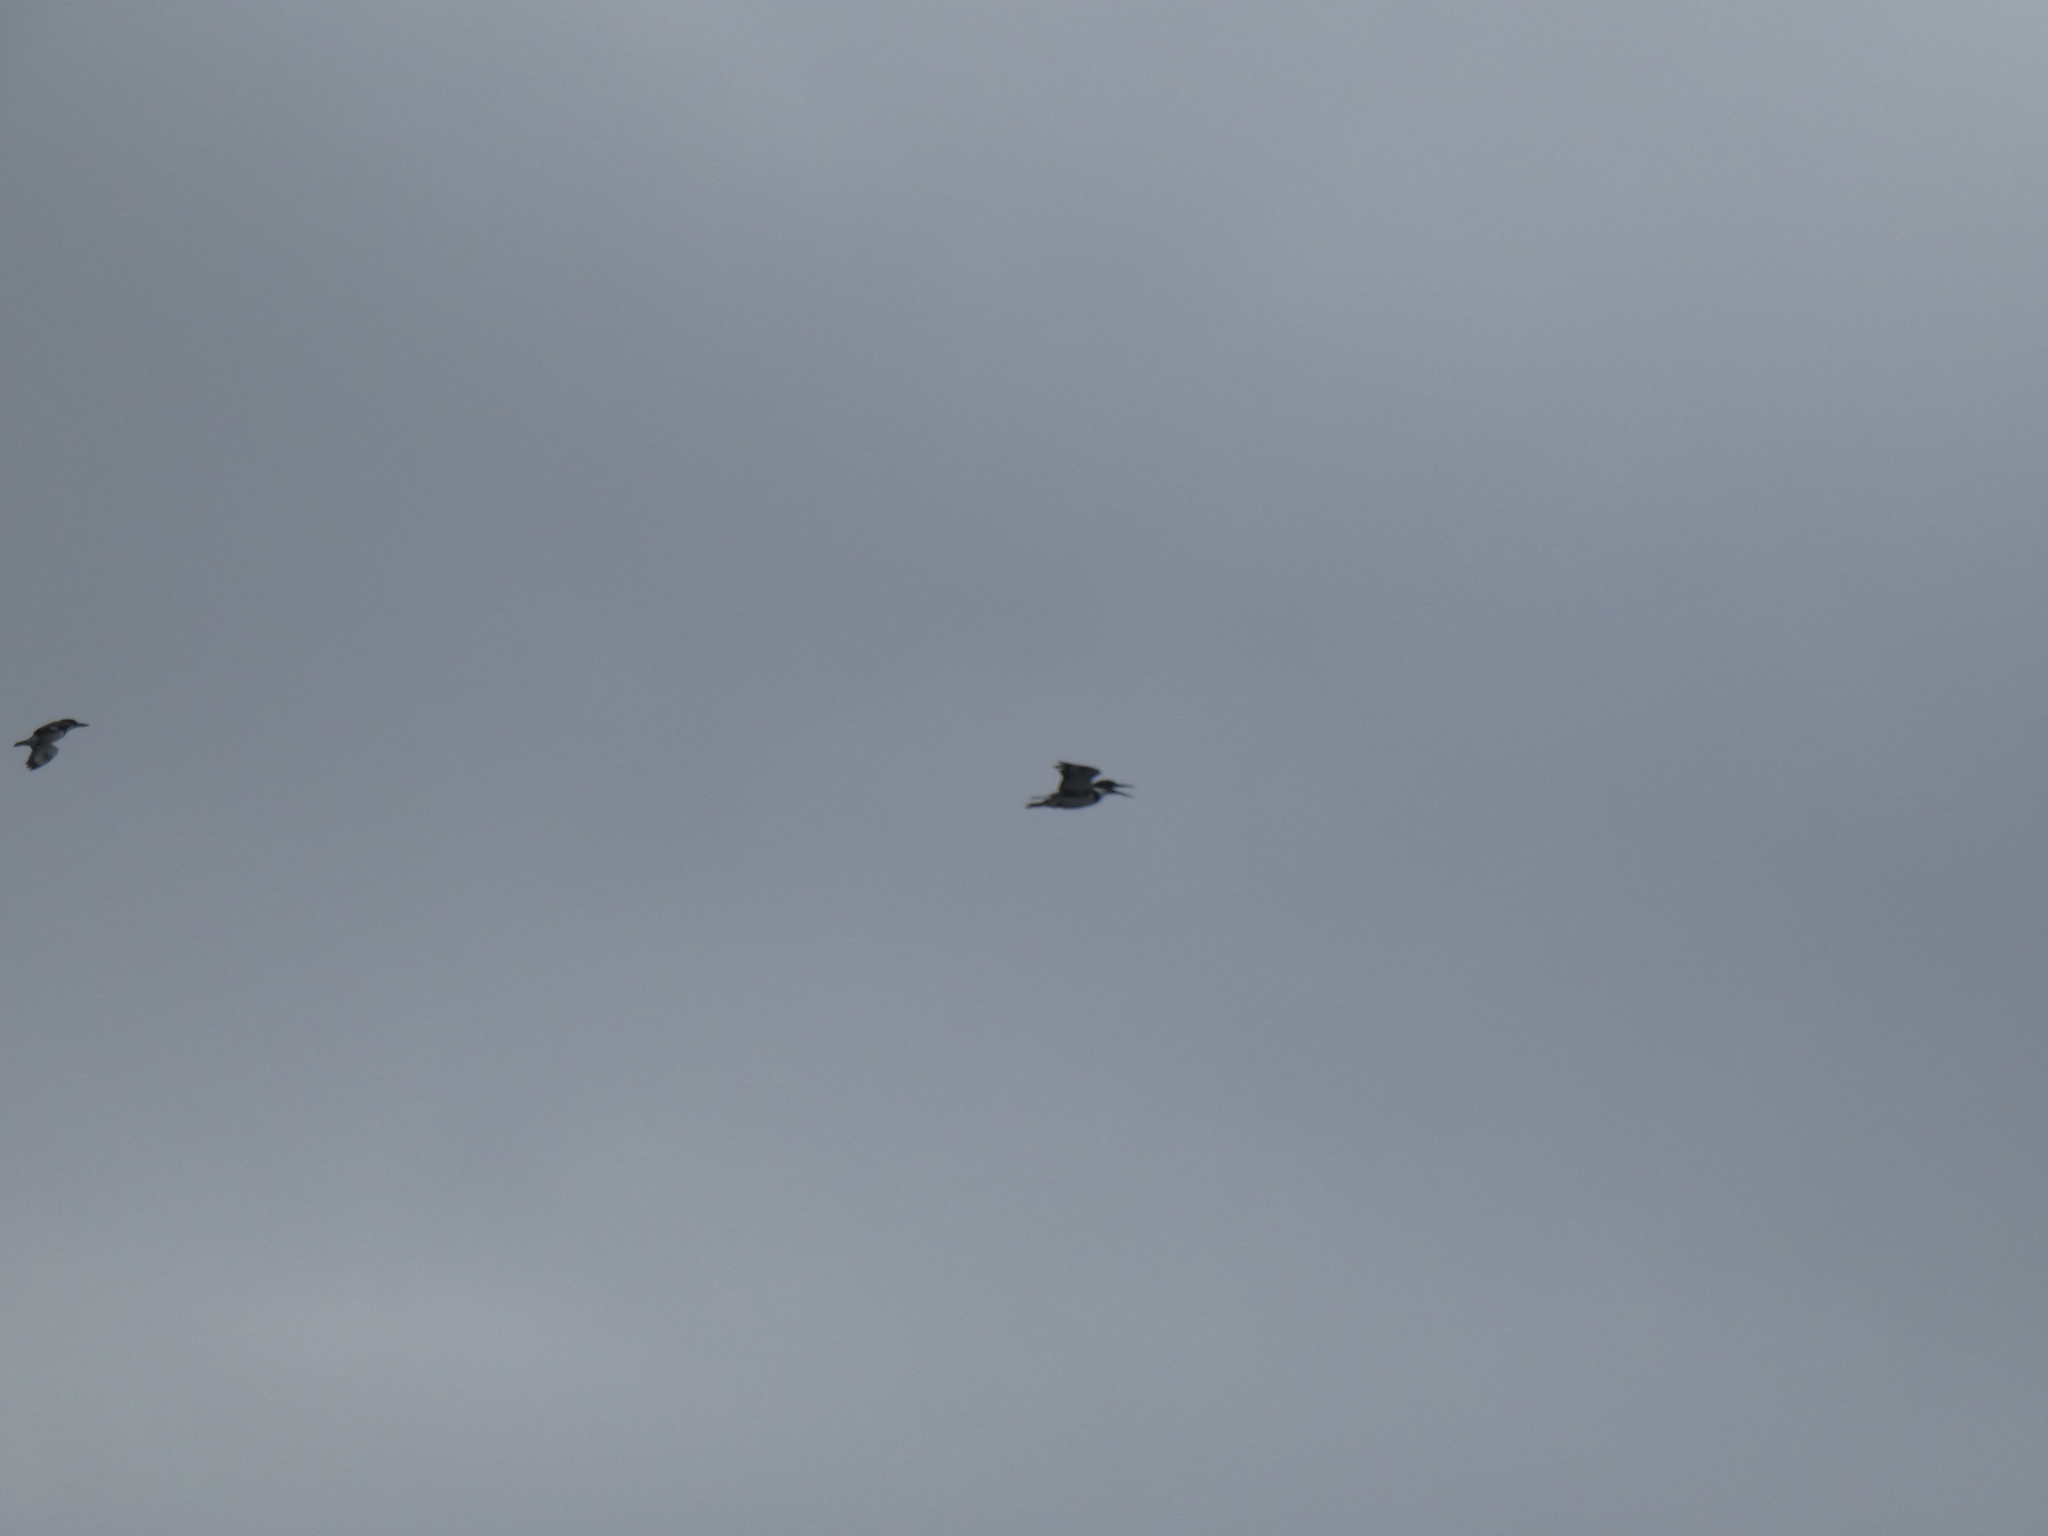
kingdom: Animalia
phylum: Chordata
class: Aves
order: Coraciiformes
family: Alcedinidae
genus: Megaceryle
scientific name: Megaceryle alcyon
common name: Belted kingfisher
